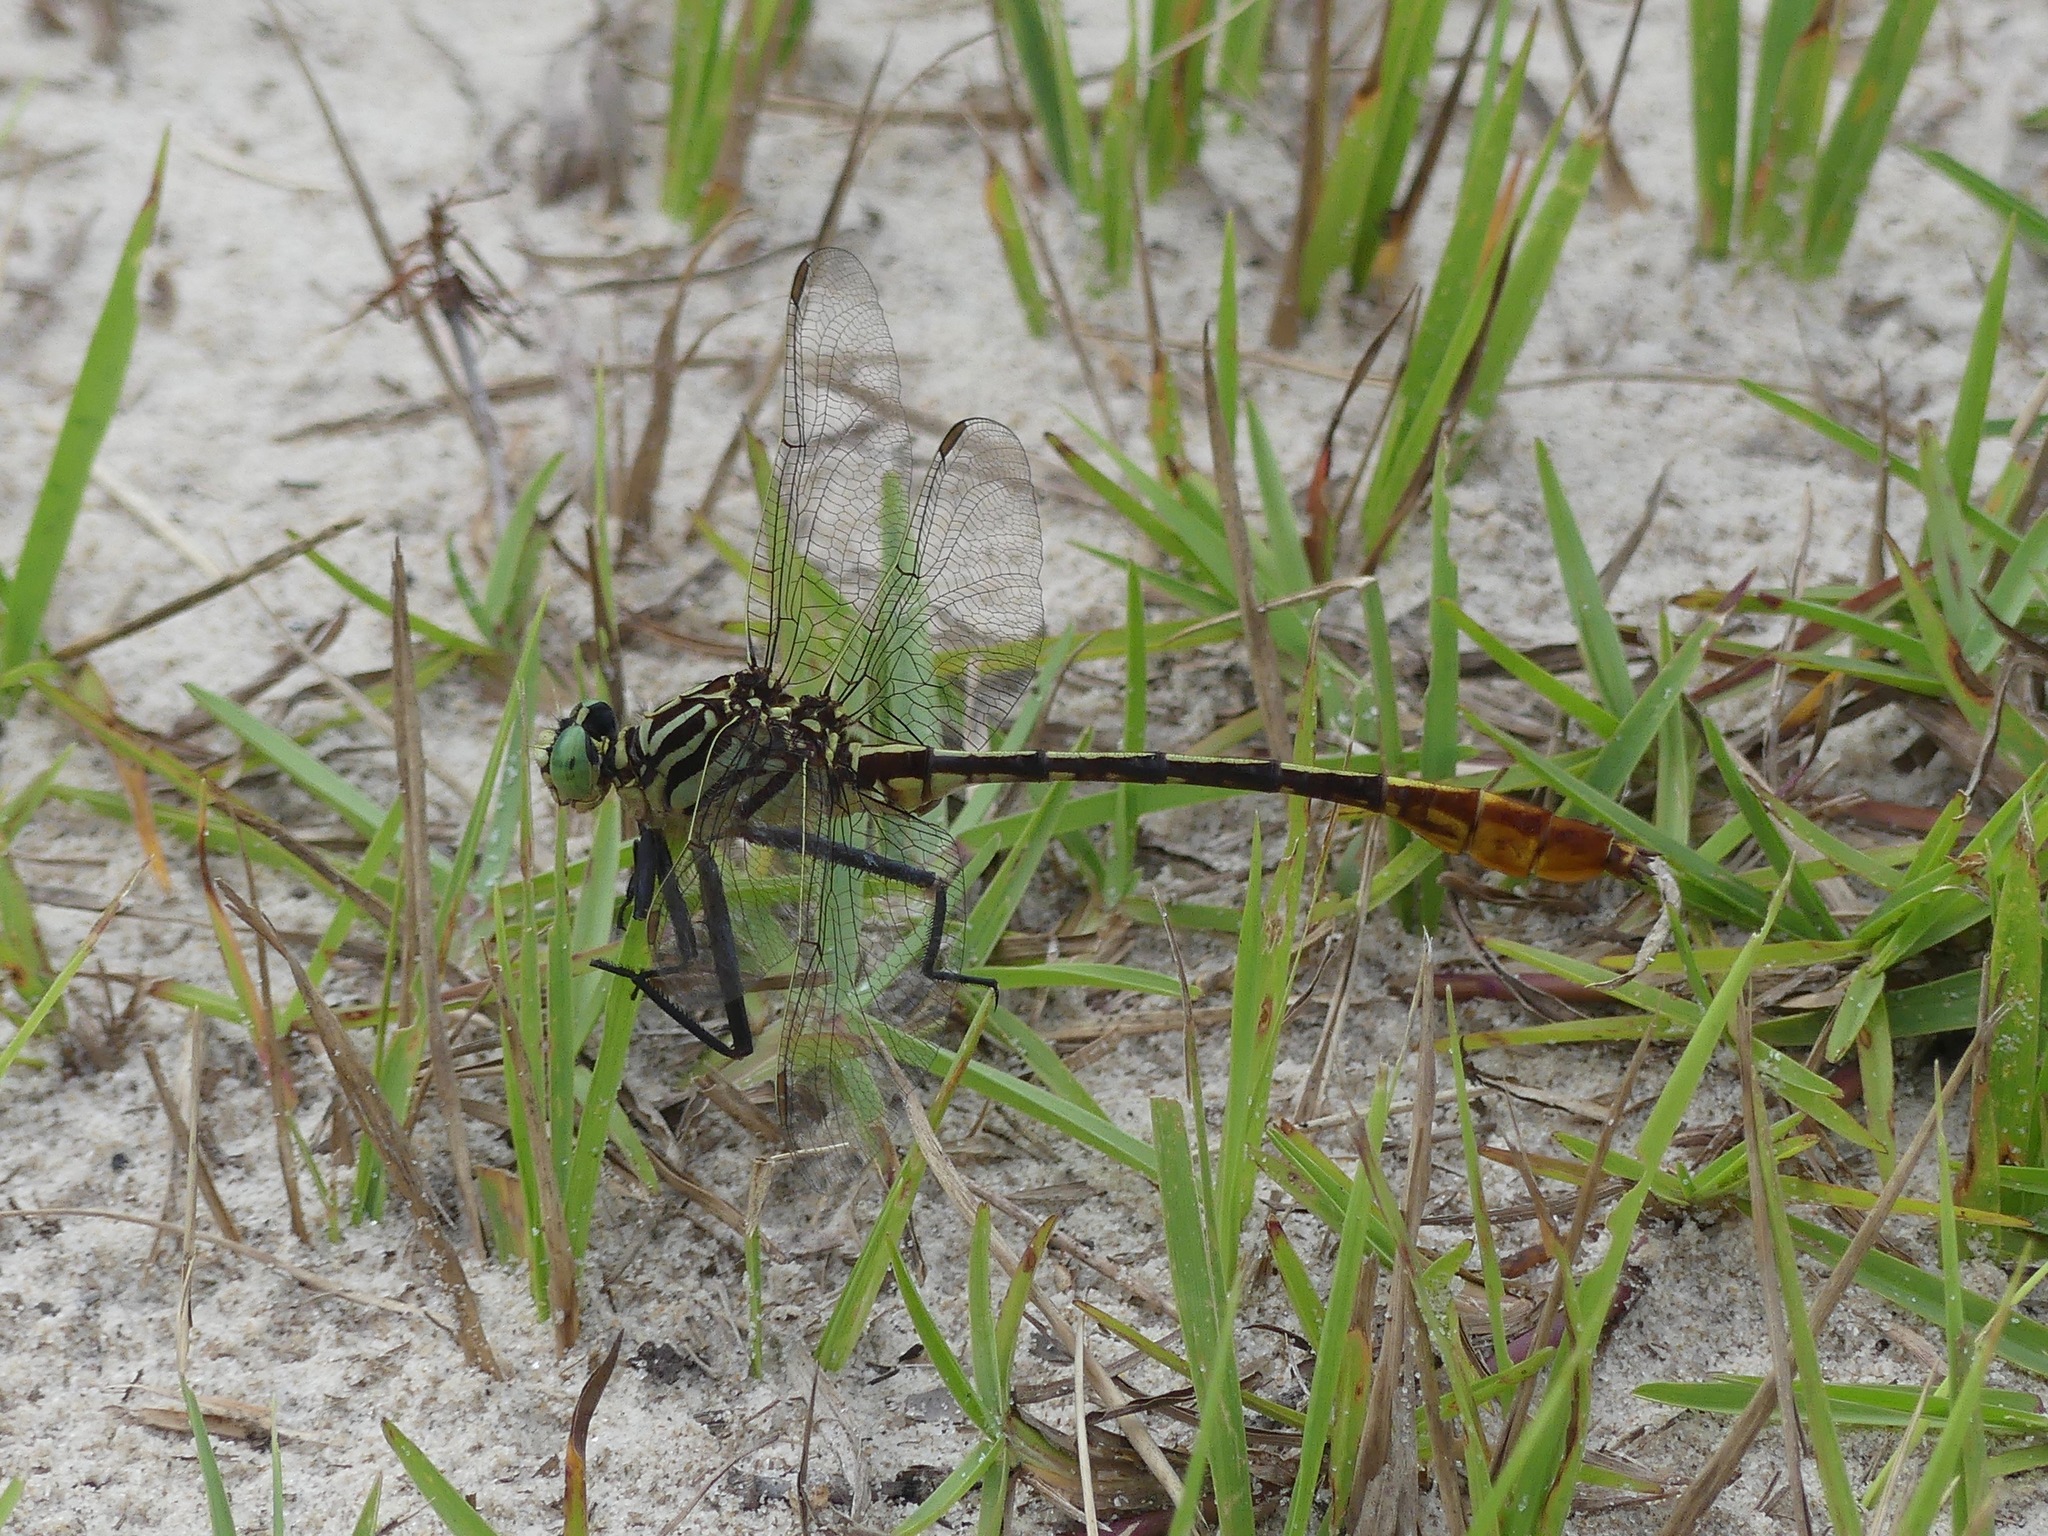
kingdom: Animalia
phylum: Arthropoda
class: Insecta
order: Odonata
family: Gomphidae
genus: Dromogomphus
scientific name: Dromogomphus armatus
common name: Southeastern spinyleg
